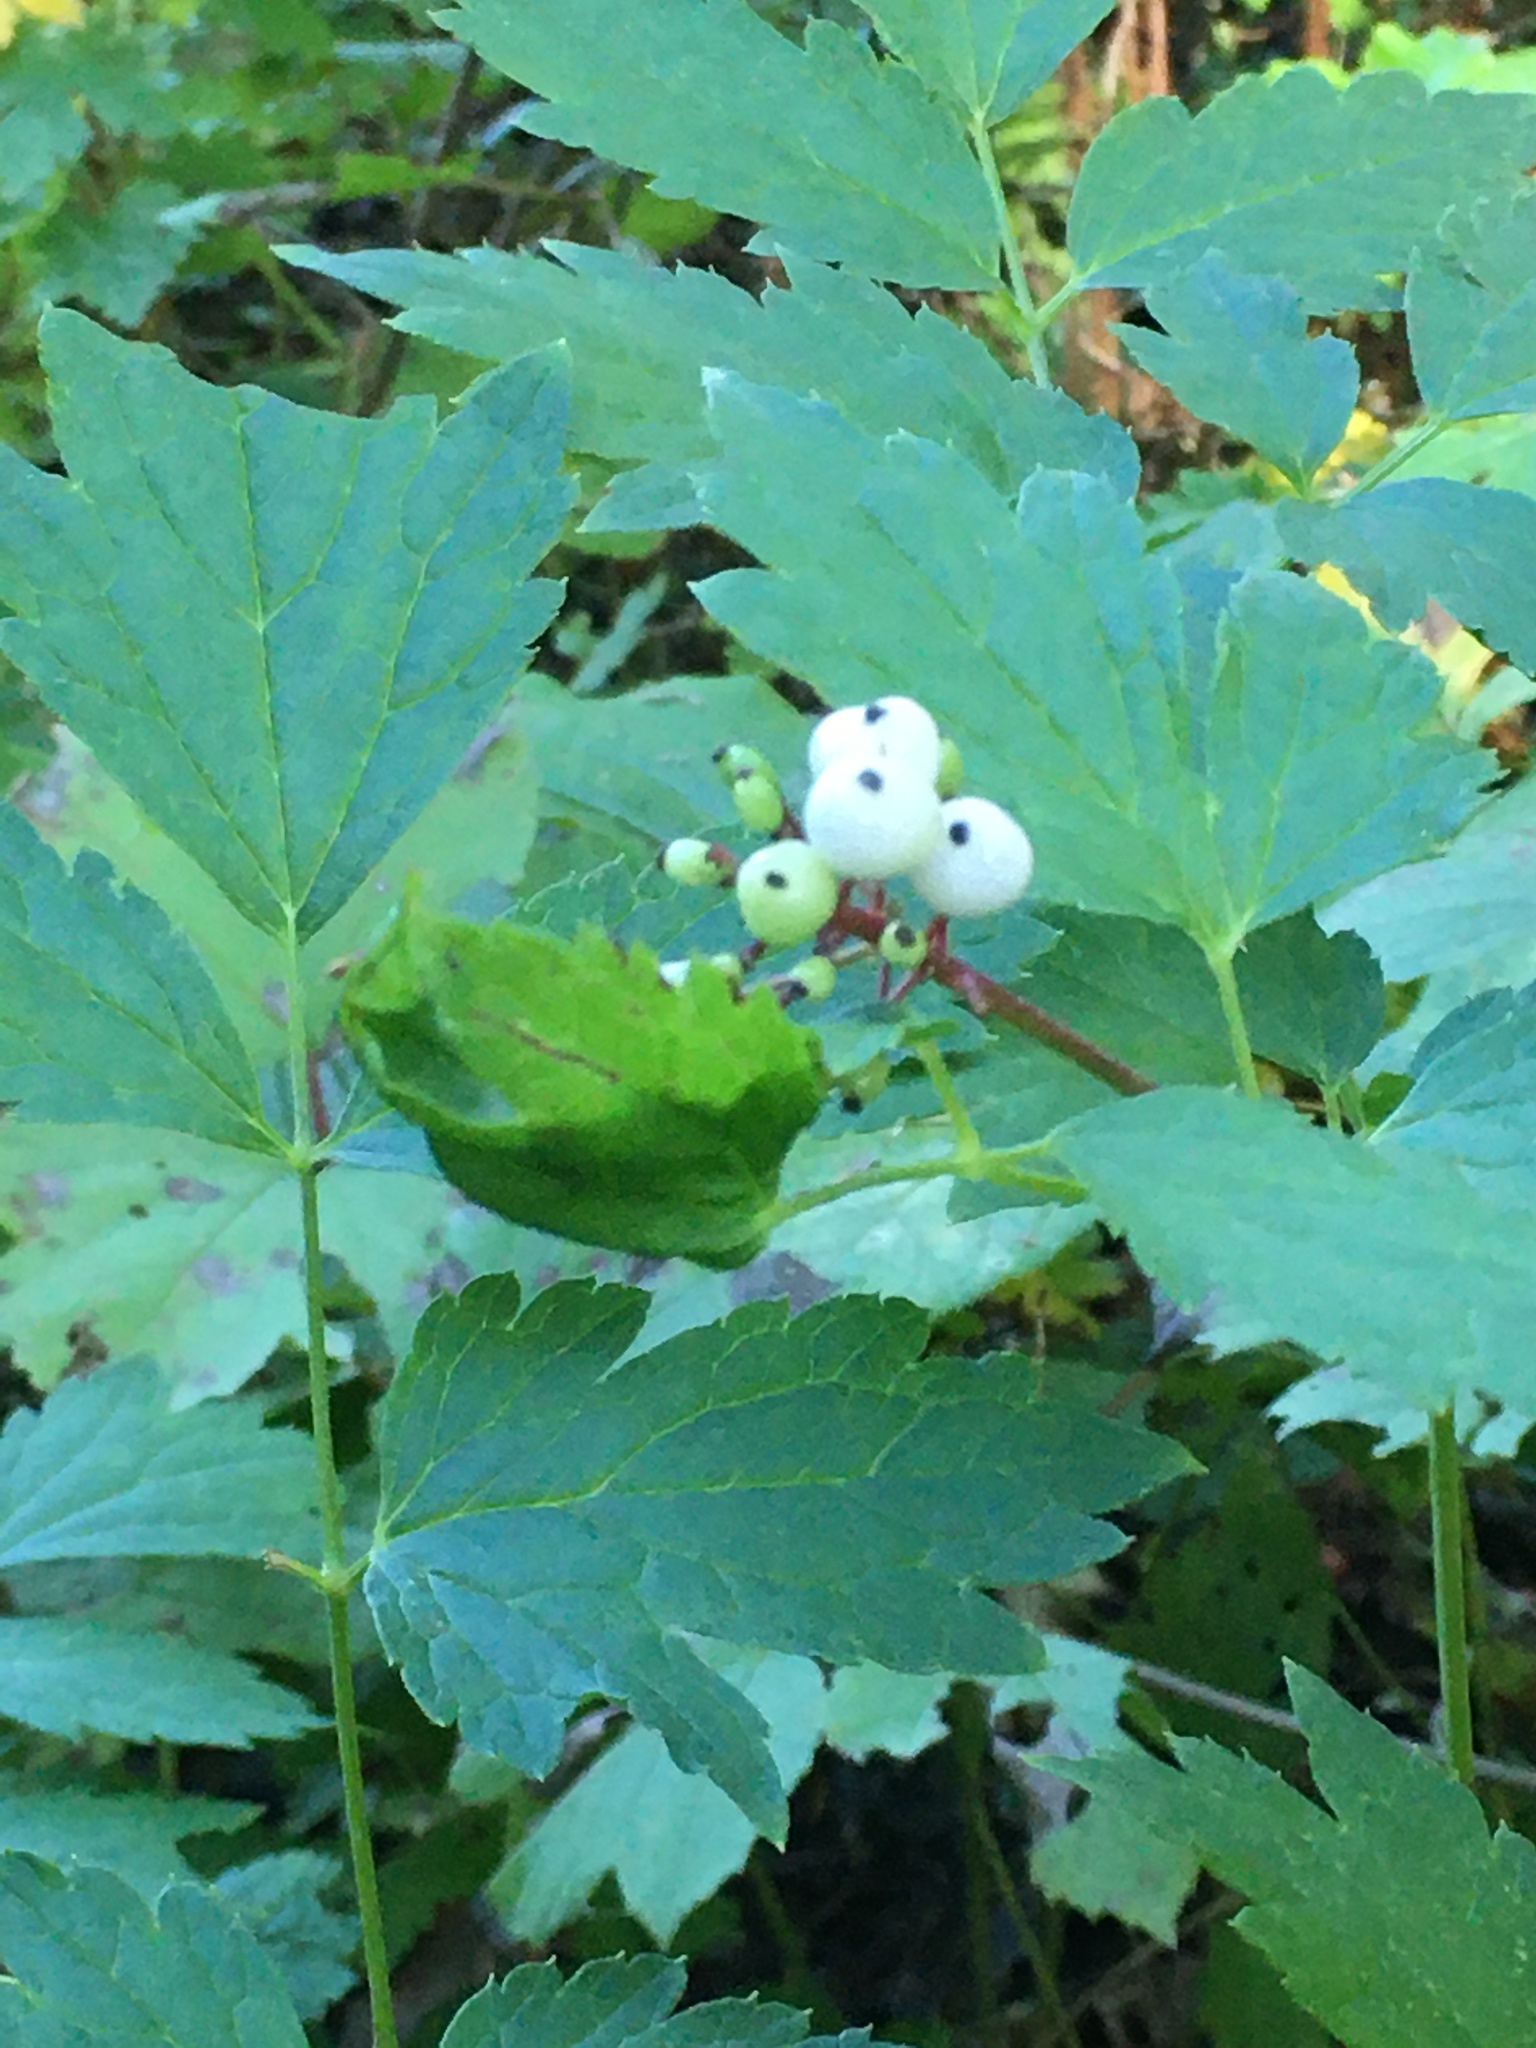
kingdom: Plantae
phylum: Tracheophyta
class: Magnoliopsida
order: Ranunculales
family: Ranunculaceae
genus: Actaea
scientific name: Actaea rubra
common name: Red baneberry
